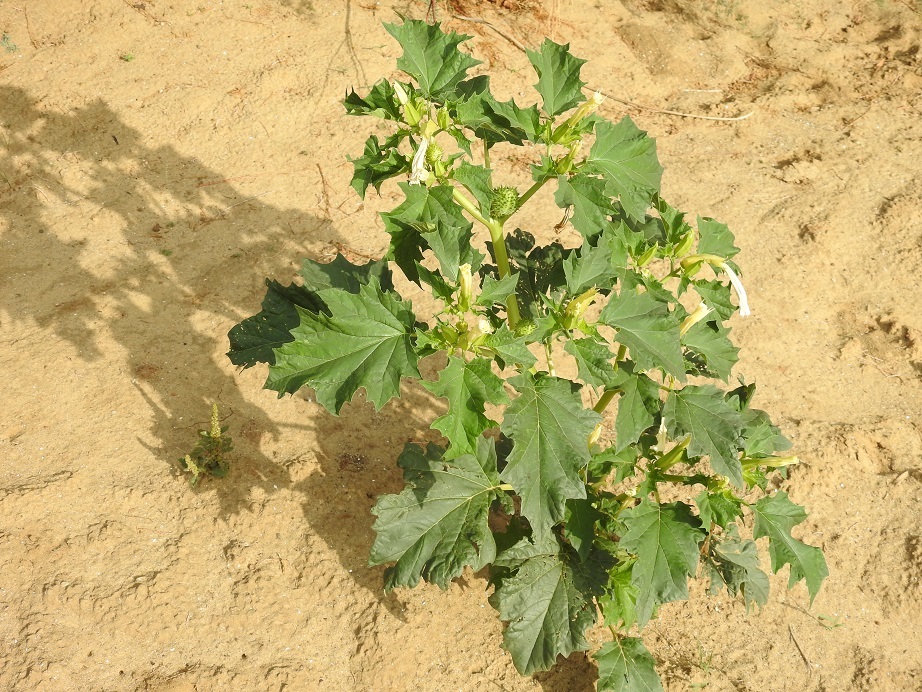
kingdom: Plantae
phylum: Tracheophyta
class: Magnoliopsida
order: Solanales
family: Solanaceae
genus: Datura
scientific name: Datura stramonium
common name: Thorn-apple
